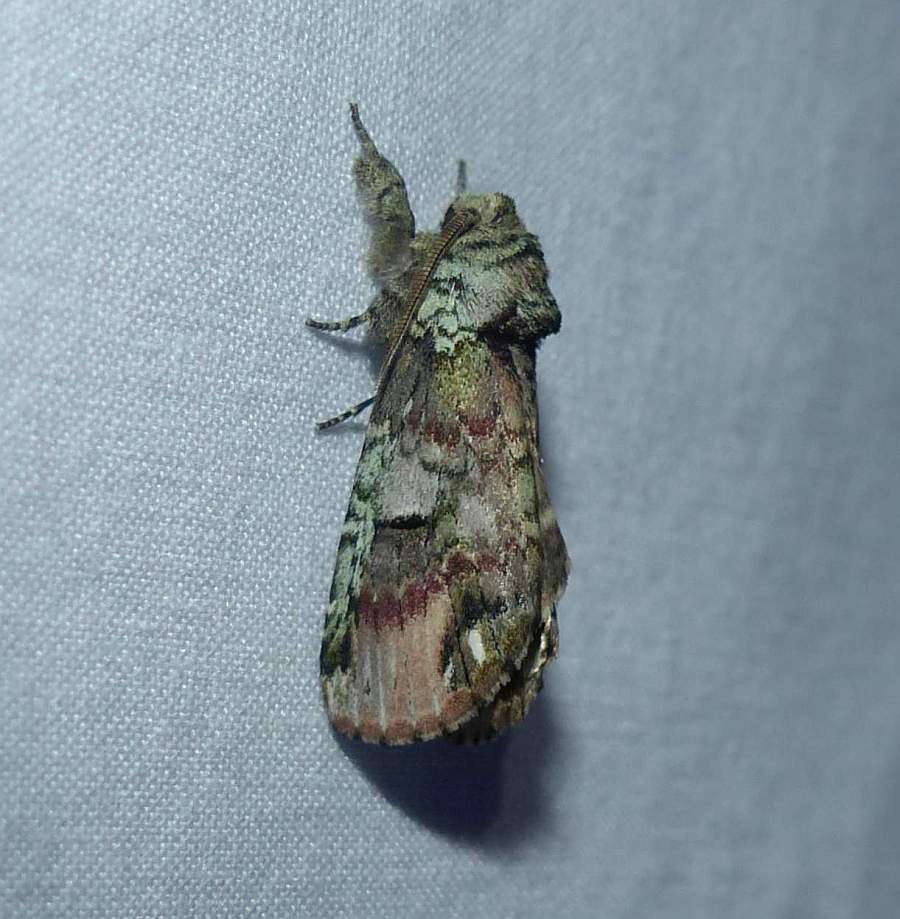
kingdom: Animalia
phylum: Arthropoda
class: Insecta
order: Lepidoptera
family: Notodontidae
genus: Schizura
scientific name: Schizura
